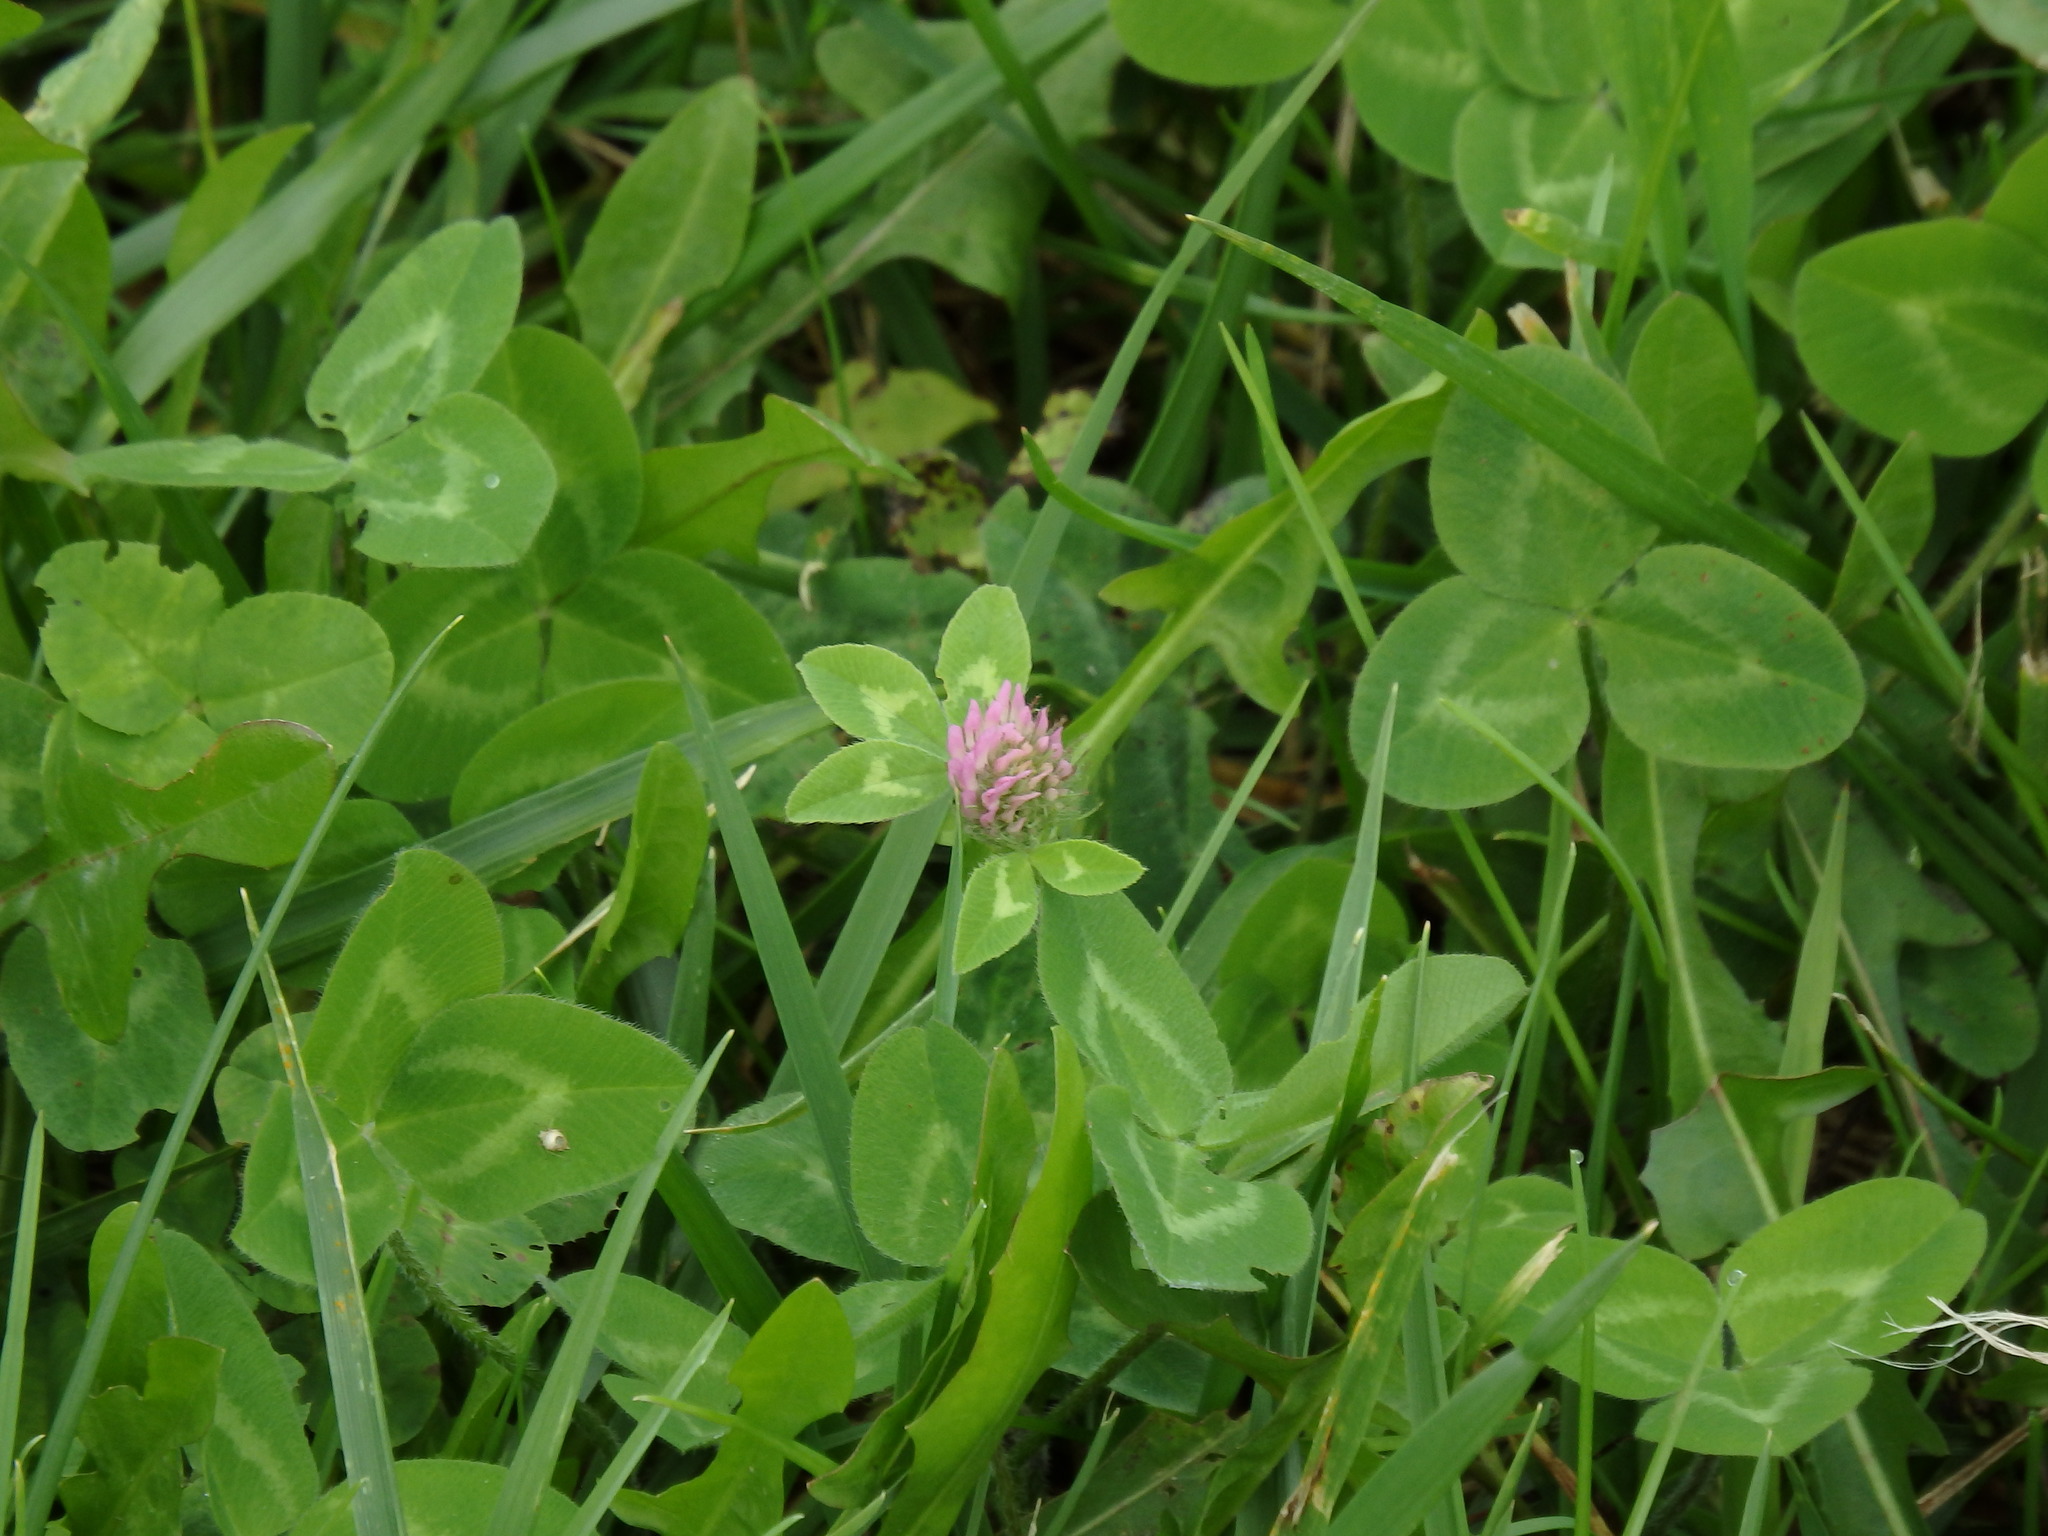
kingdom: Plantae
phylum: Tracheophyta
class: Magnoliopsida
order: Fabales
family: Fabaceae
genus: Trifolium
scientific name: Trifolium pratense
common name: Red clover
